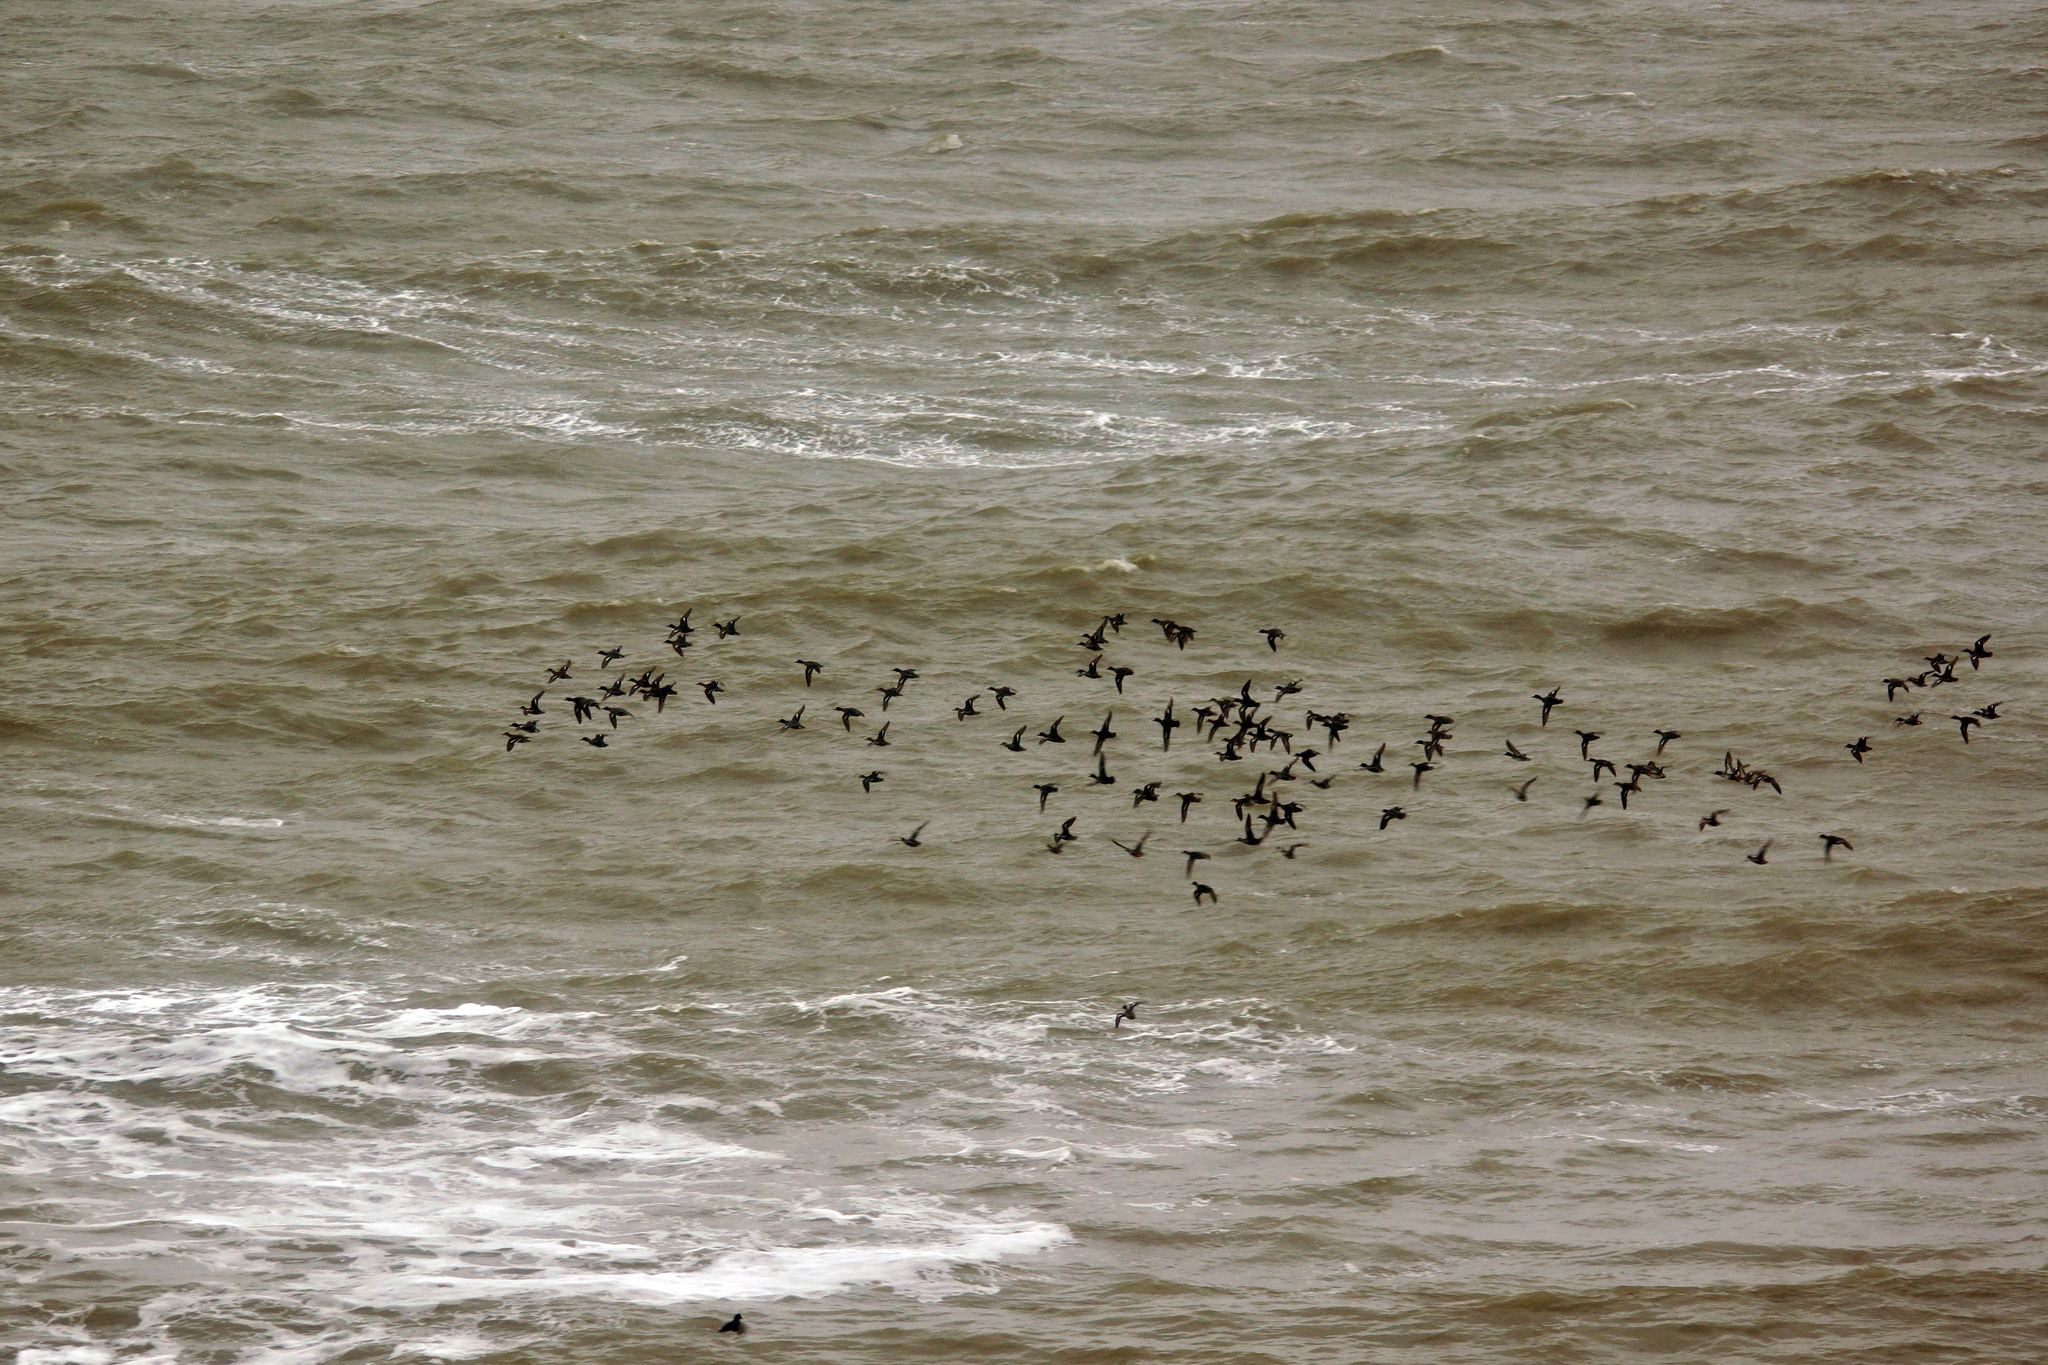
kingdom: Animalia
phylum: Chordata
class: Aves
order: Anseriformes
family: Anatidae
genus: Anas
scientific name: Anas crecca
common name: Eurasian teal
